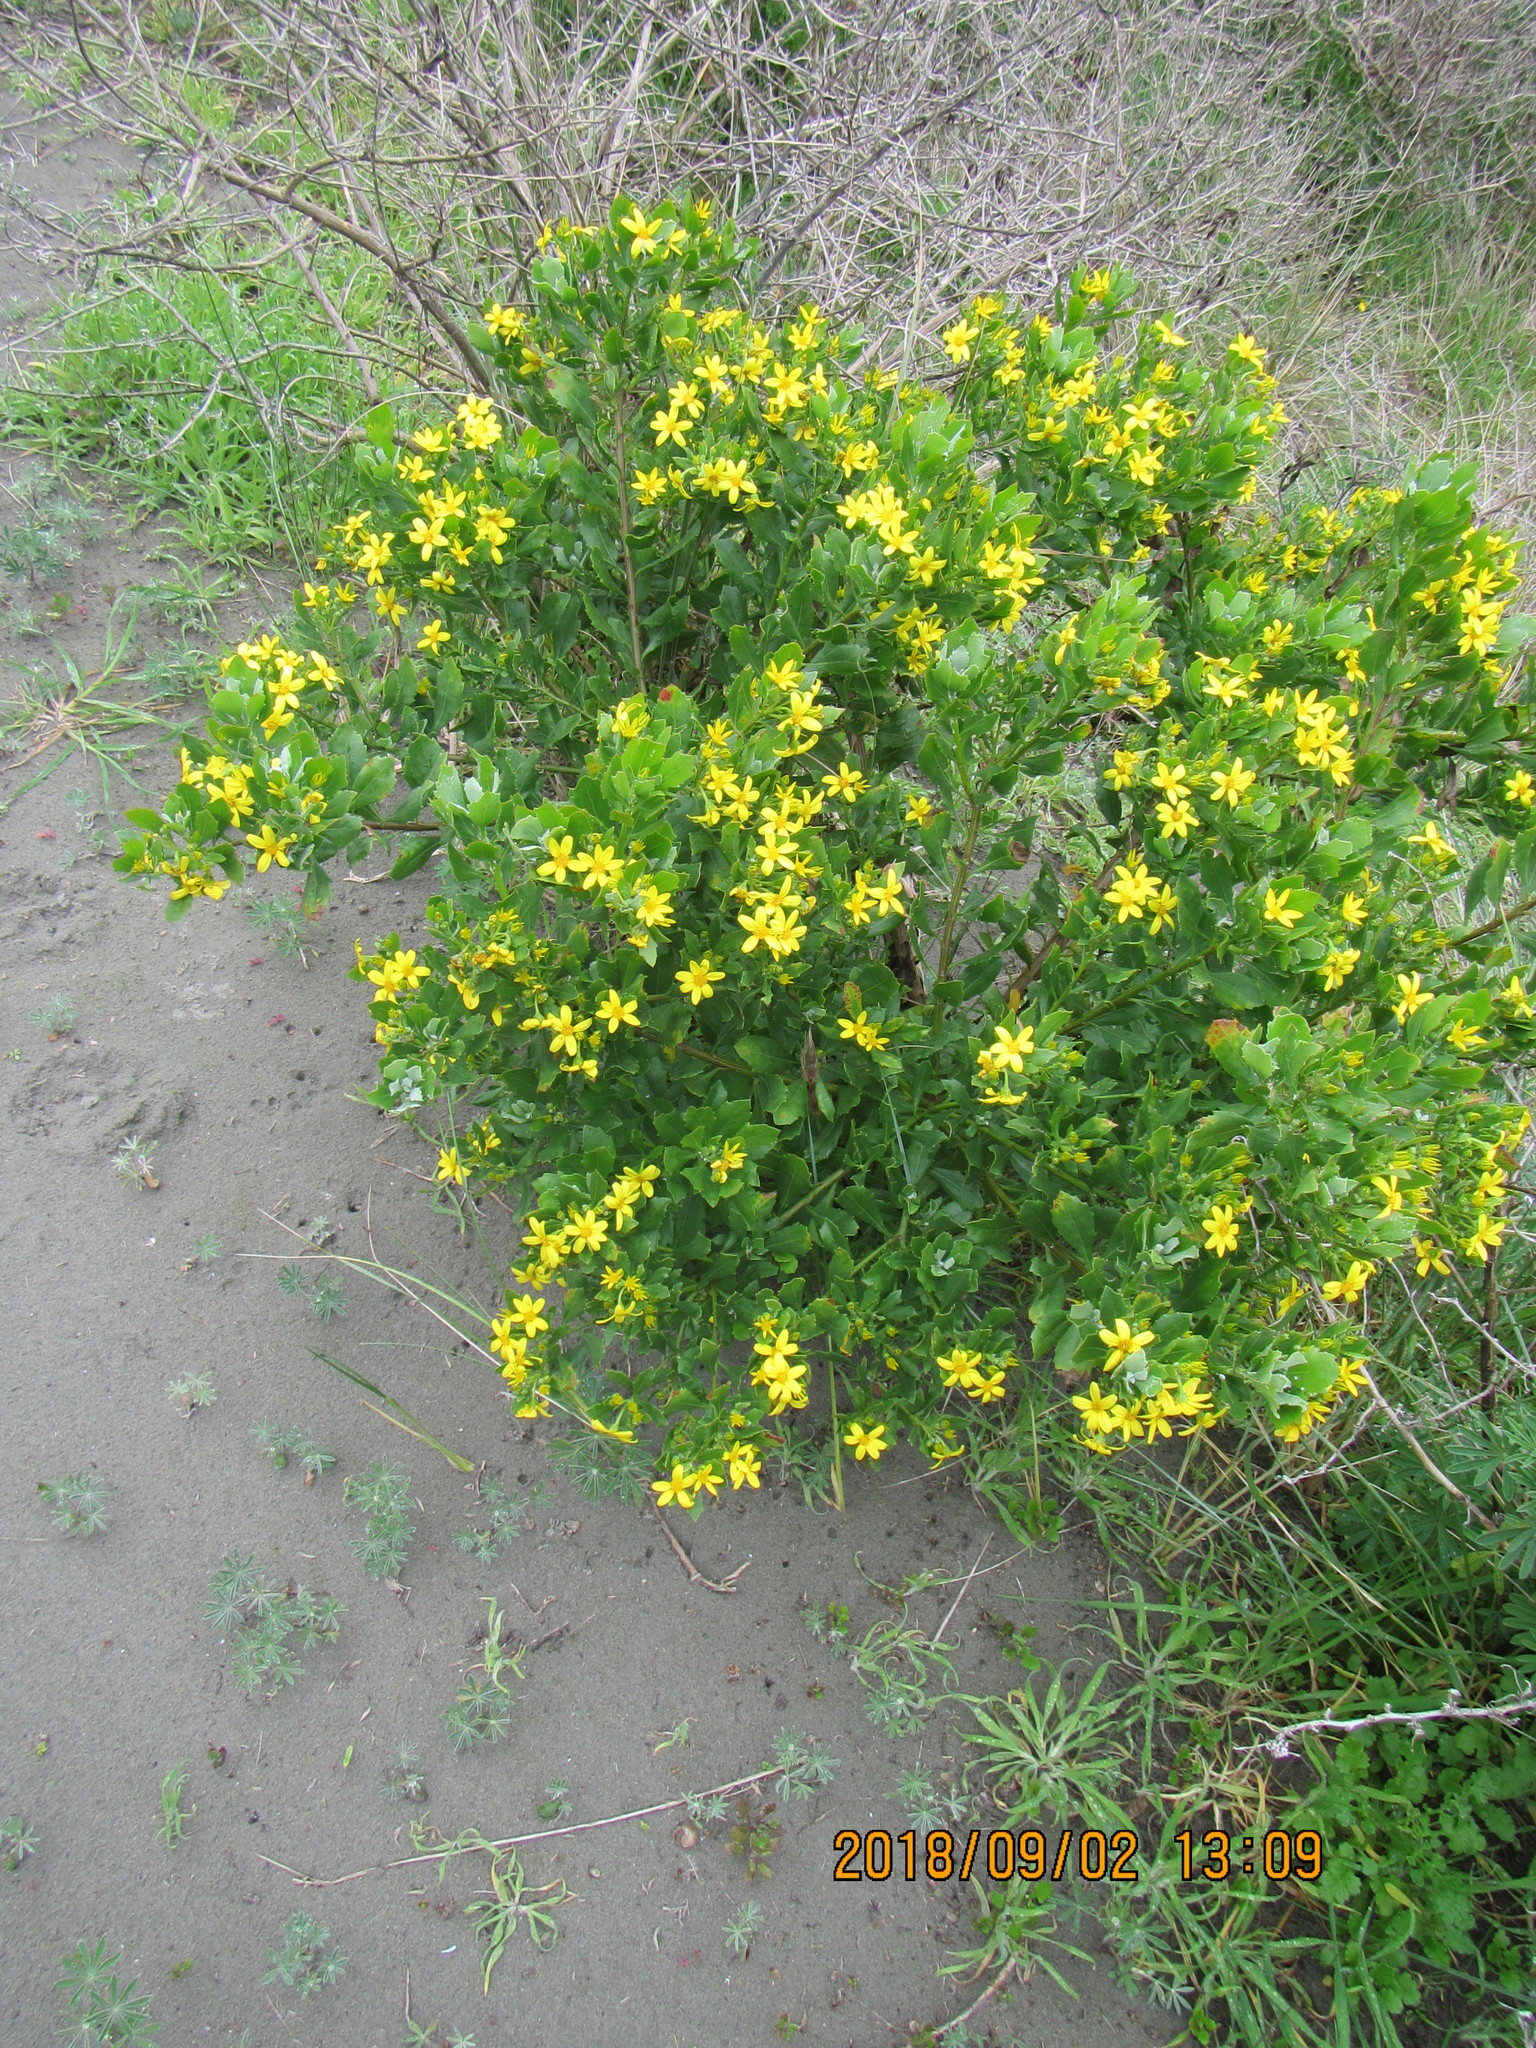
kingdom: Plantae
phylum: Tracheophyta
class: Magnoliopsida
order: Asterales
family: Asteraceae
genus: Osteospermum
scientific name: Osteospermum moniliferum
